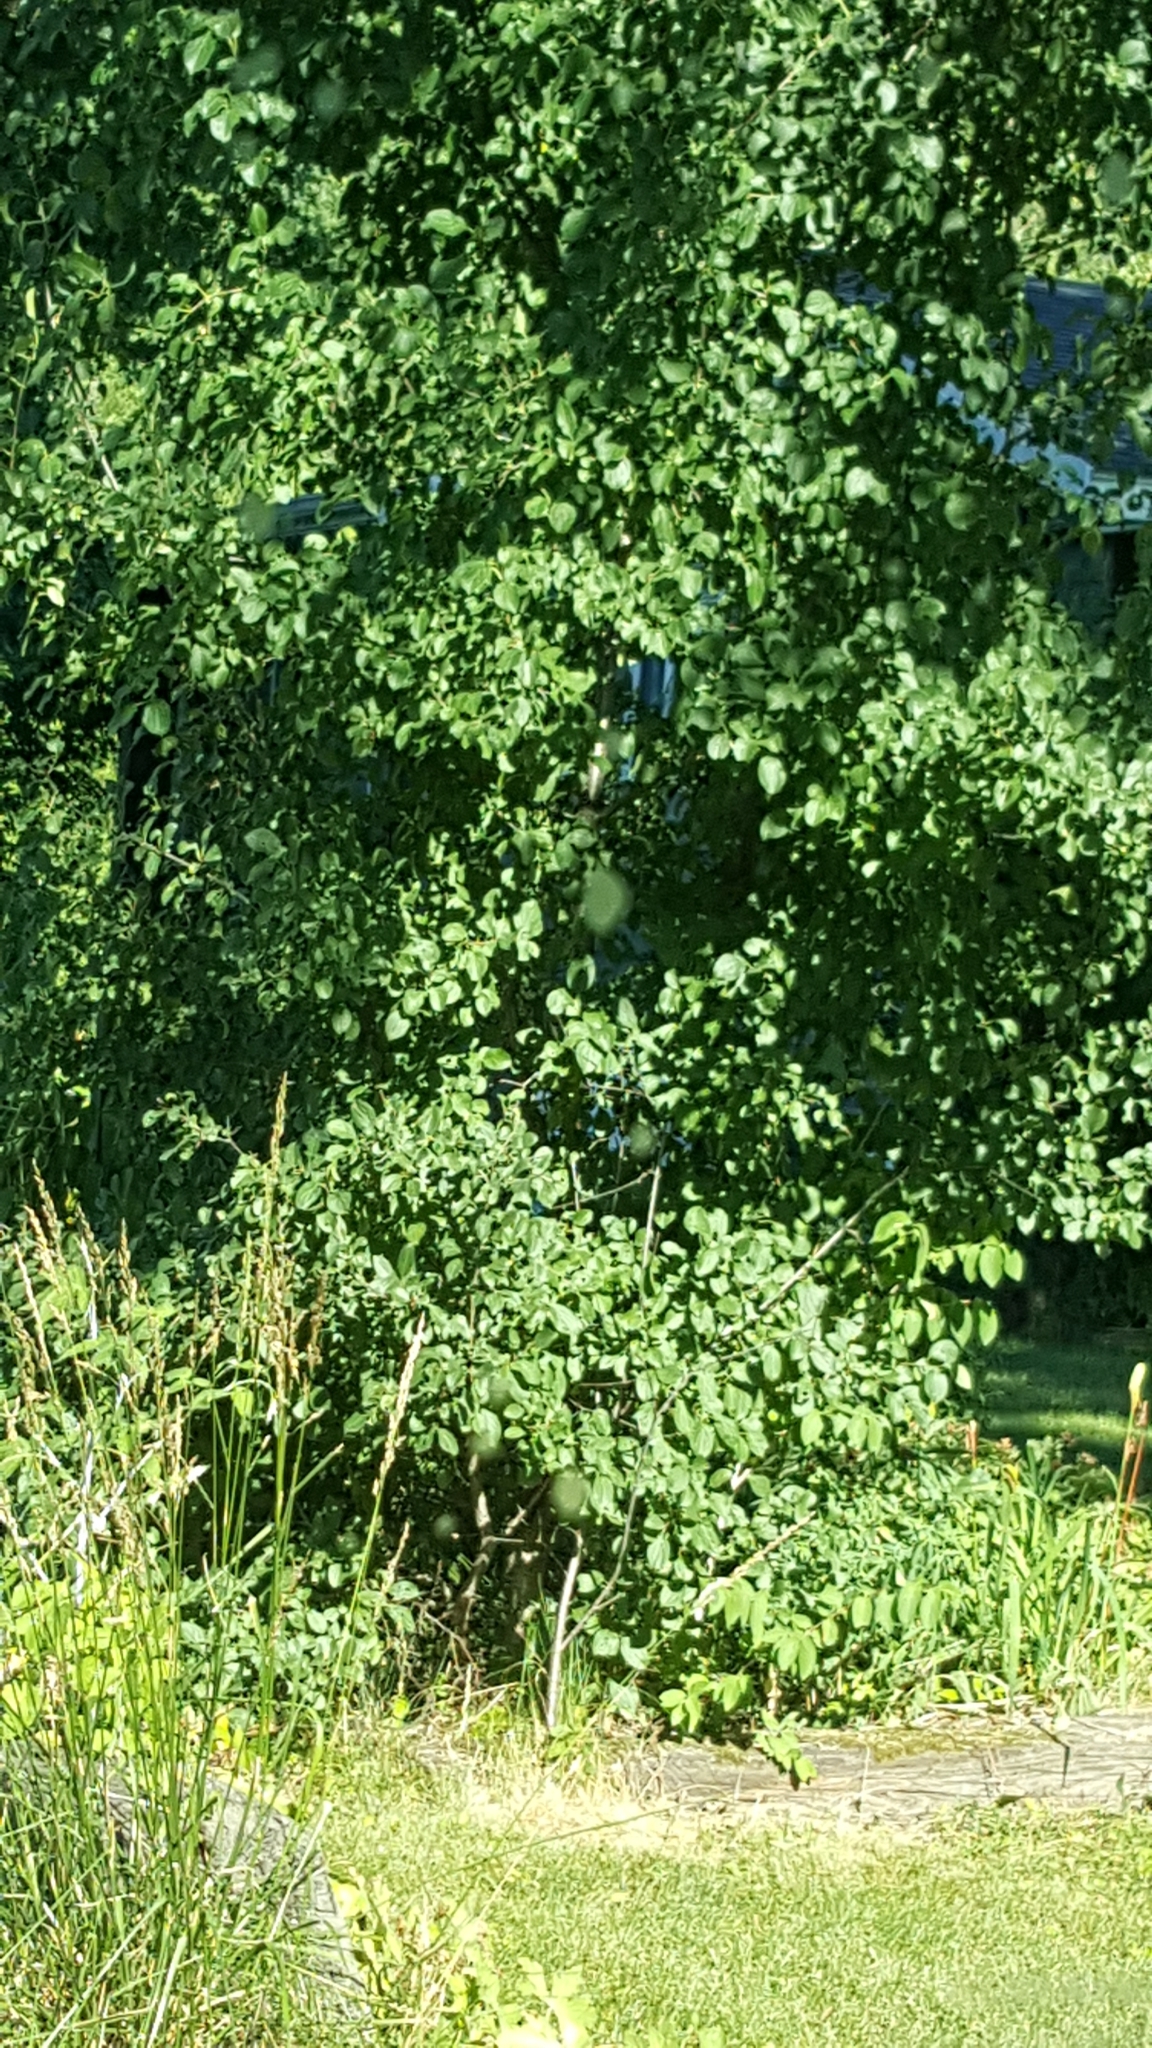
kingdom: Plantae
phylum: Tracheophyta
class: Magnoliopsida
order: Rosales
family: Rhamnaceae
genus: Rhamnus
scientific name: Rhamnus cathartica
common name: Common buckthorn
